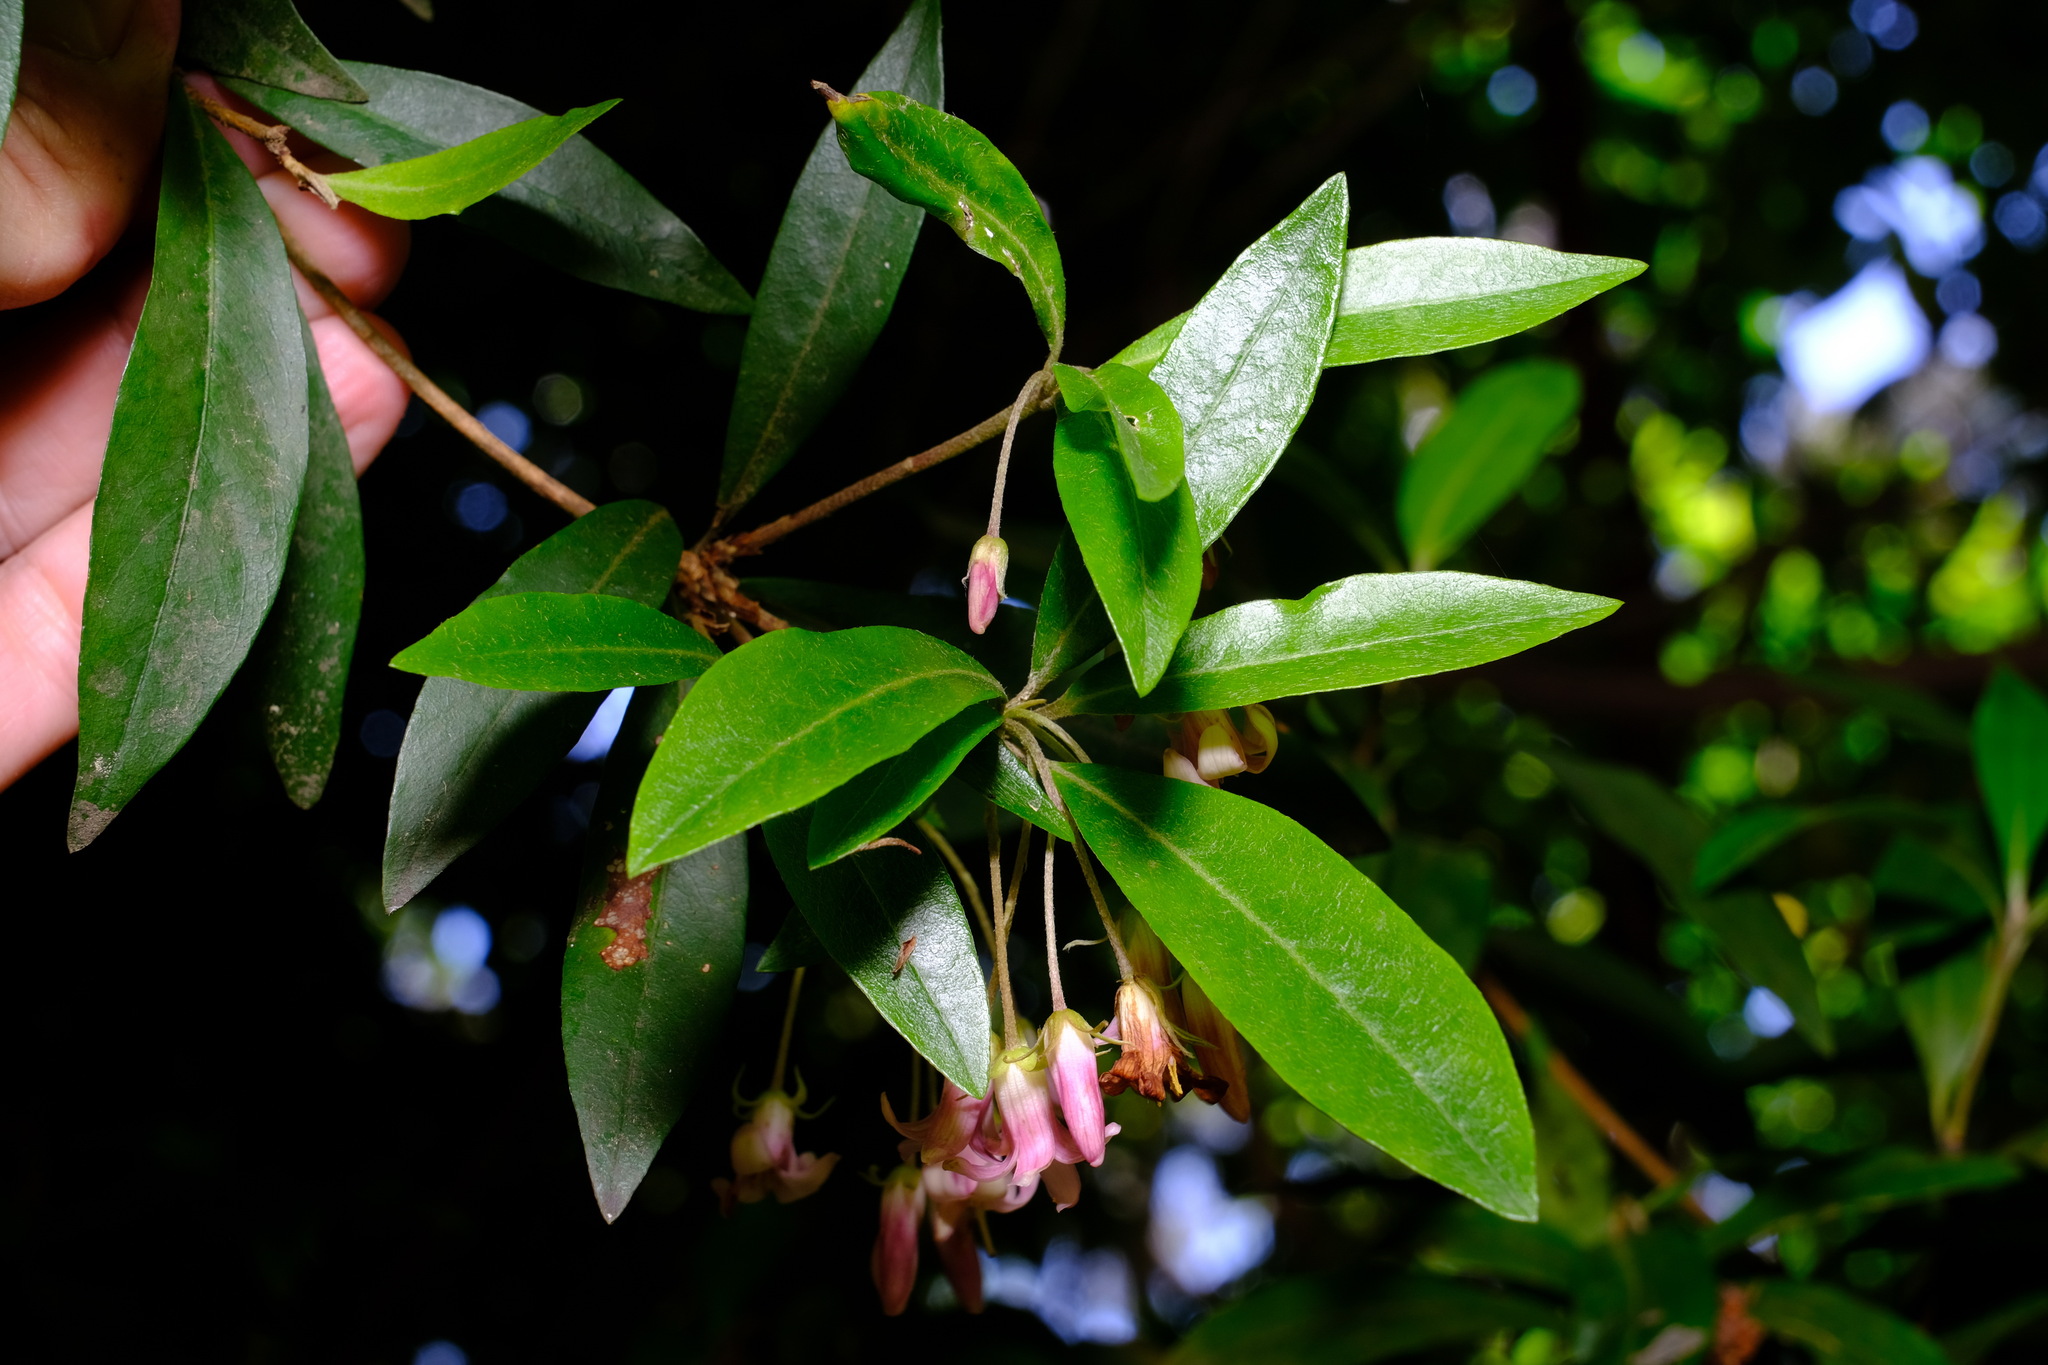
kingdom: Plantae
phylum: Tracheophyta
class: Magnoliopsida
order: Apiales
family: Pittosporaceae
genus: Pittosporum
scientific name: Pittosporum
